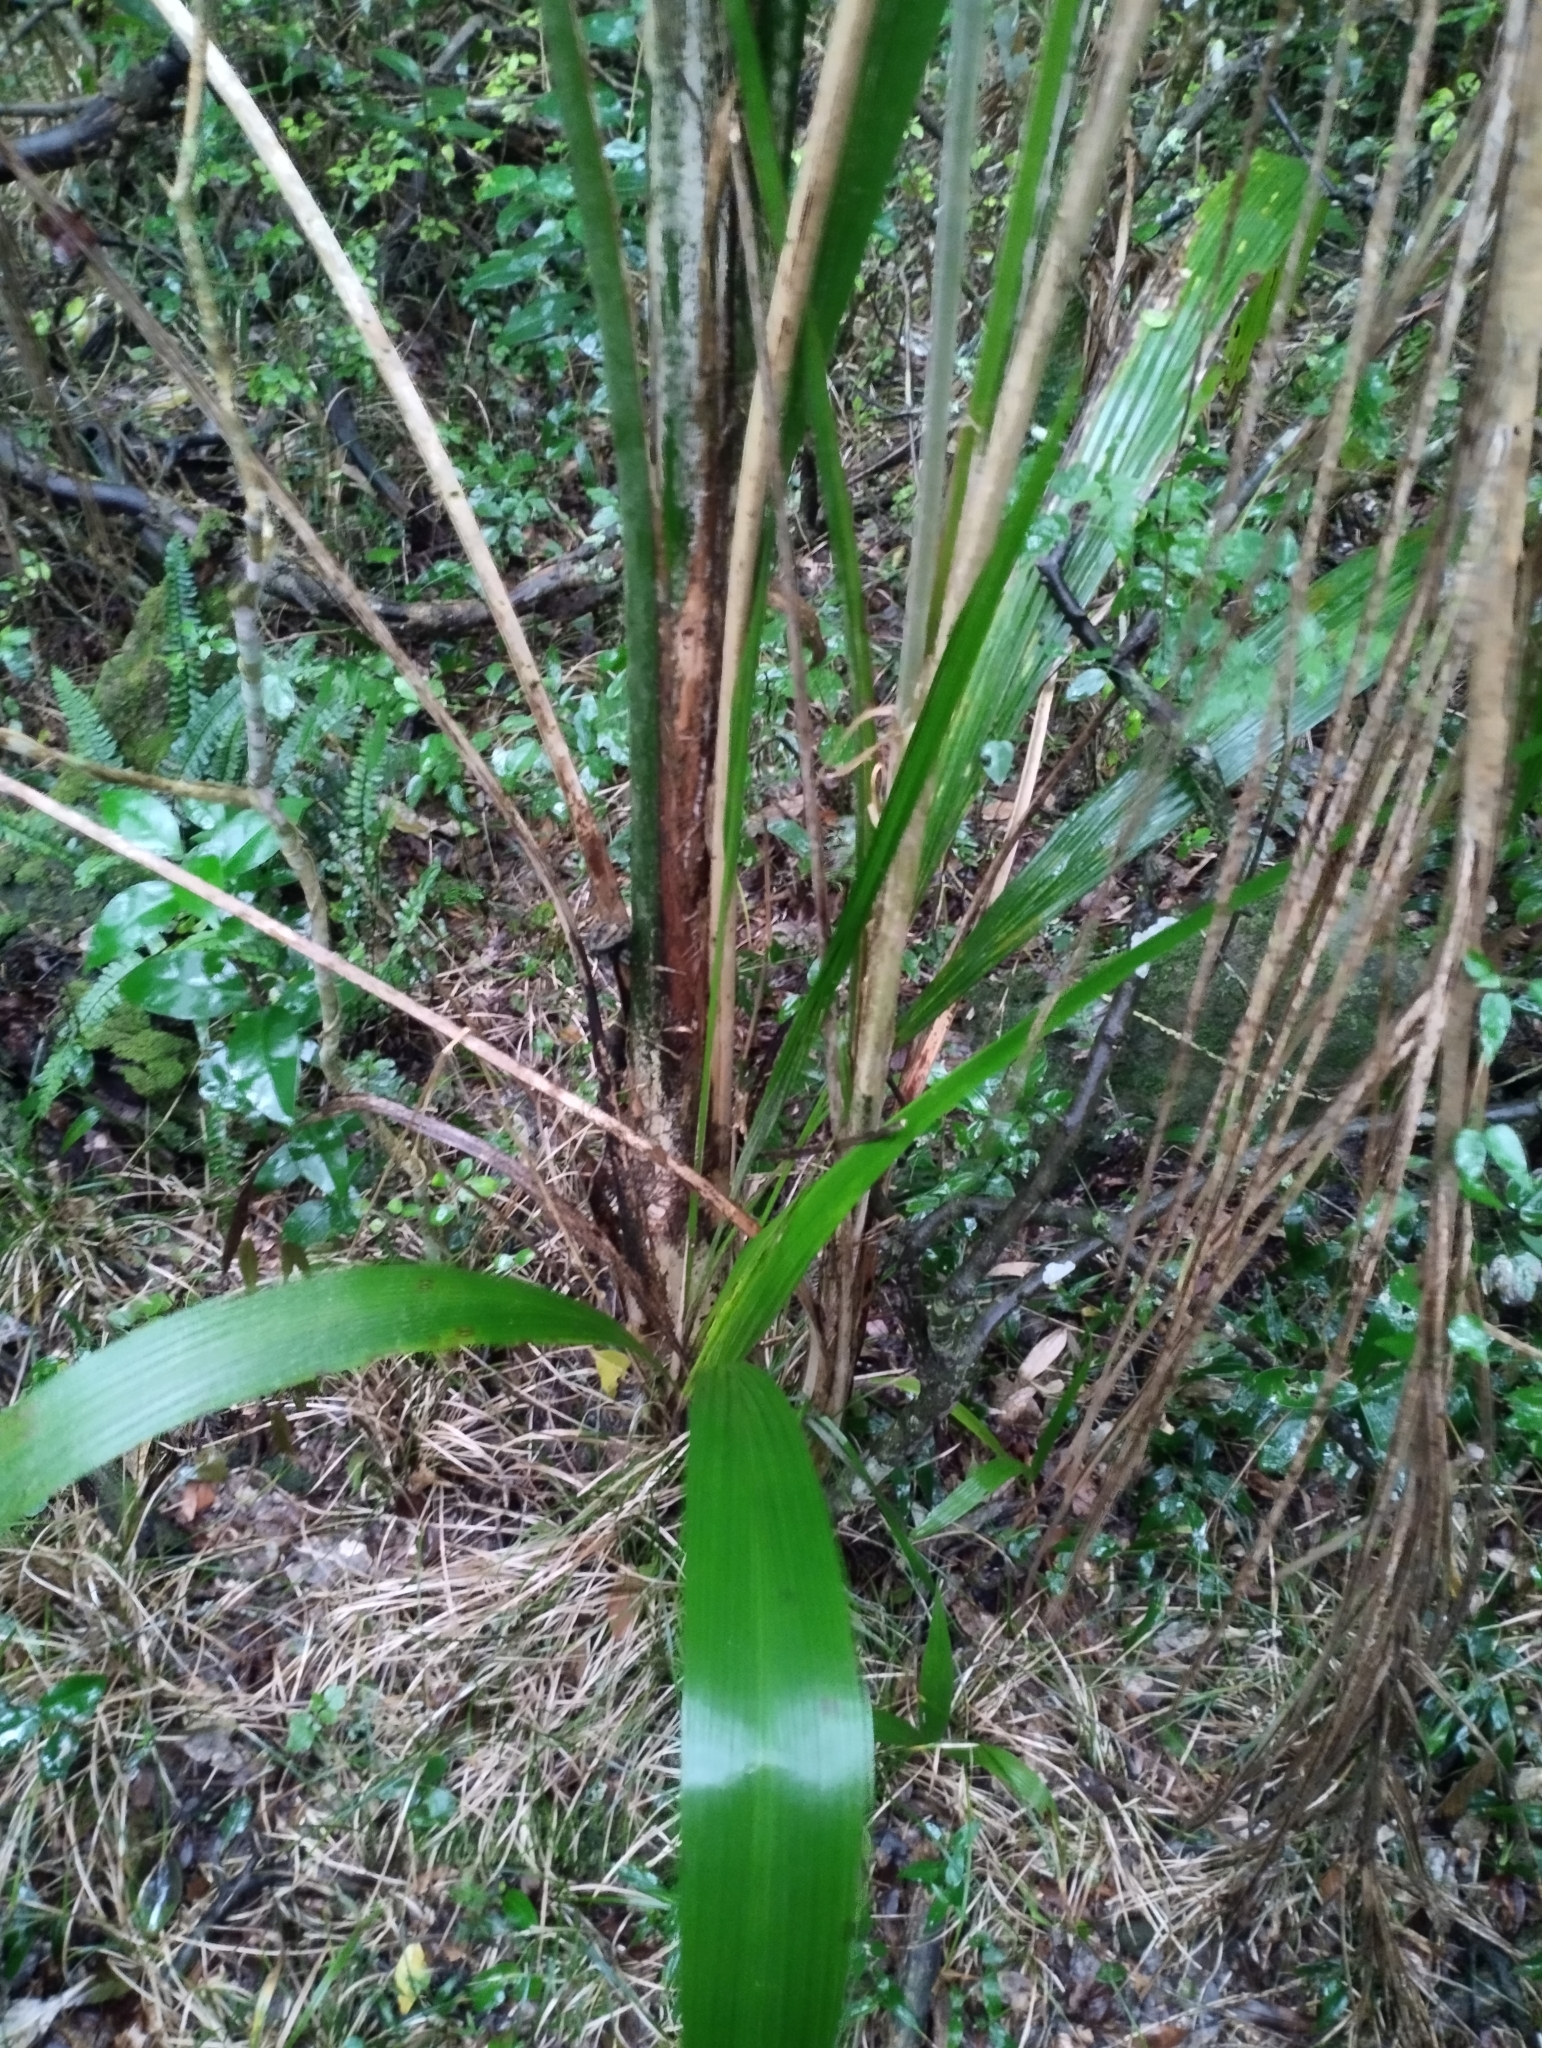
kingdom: Plantae
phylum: Tracheophyta
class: Liliopsida
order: Arecales
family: Arecaceae
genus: Syagrus
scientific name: Syagrus romanzoffiana
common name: Queen palm
